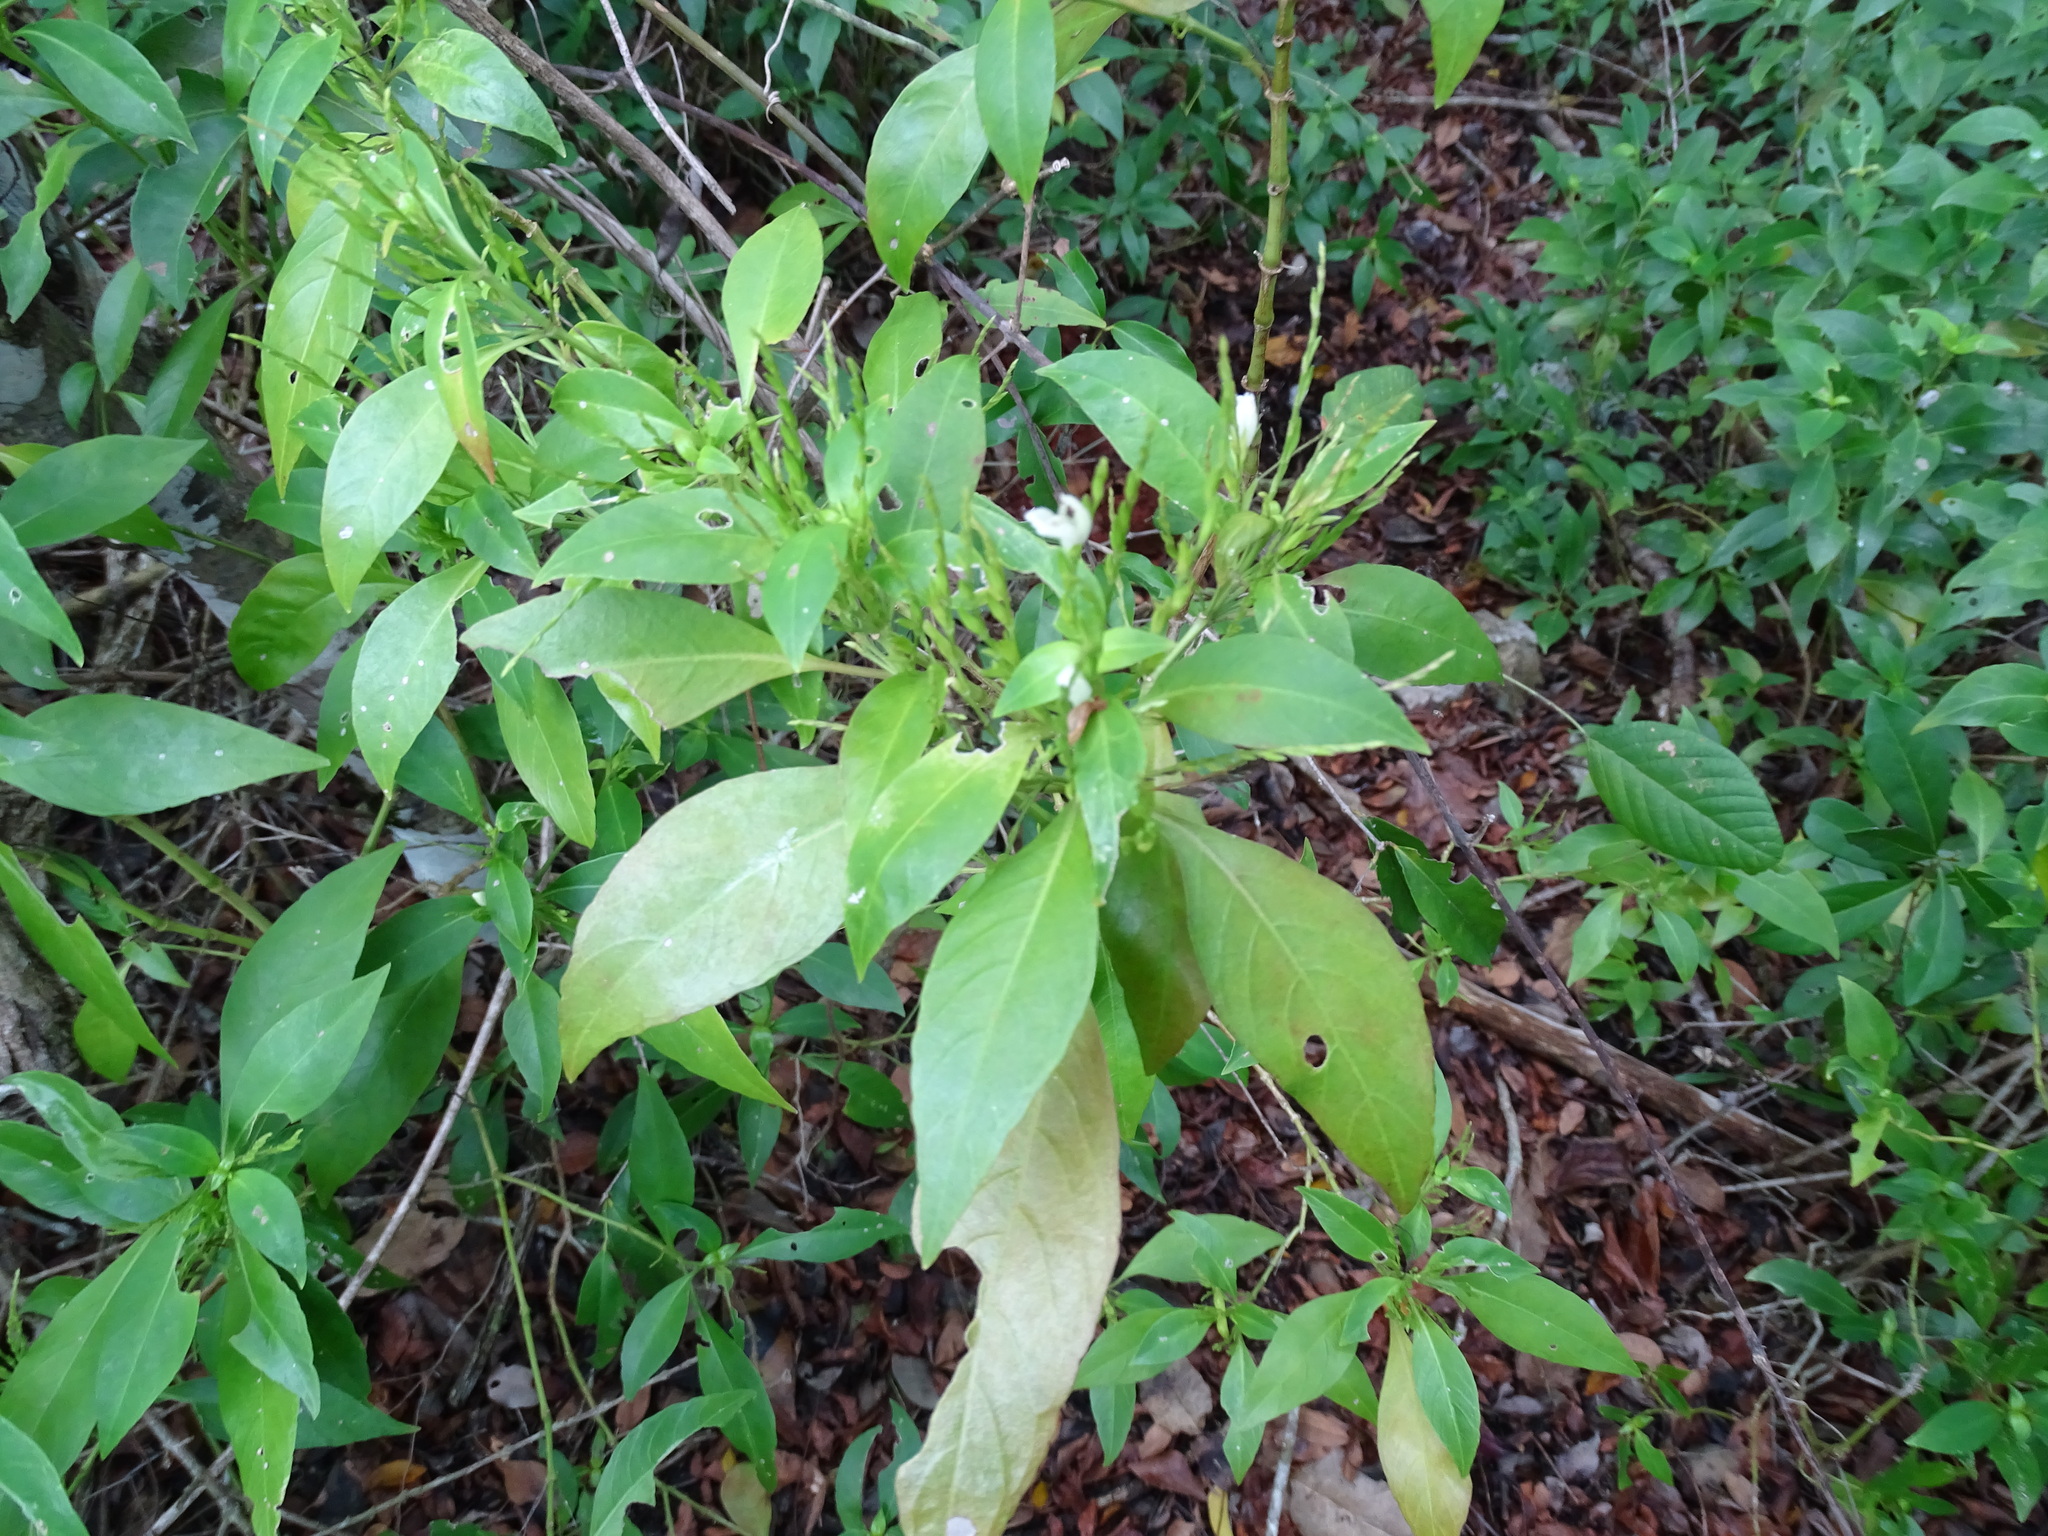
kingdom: Plantae
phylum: Tracheophyta
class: Magnoliopsida
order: Lamiales
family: Acanthaceae
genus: Justicia
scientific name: Justicia campechiana
